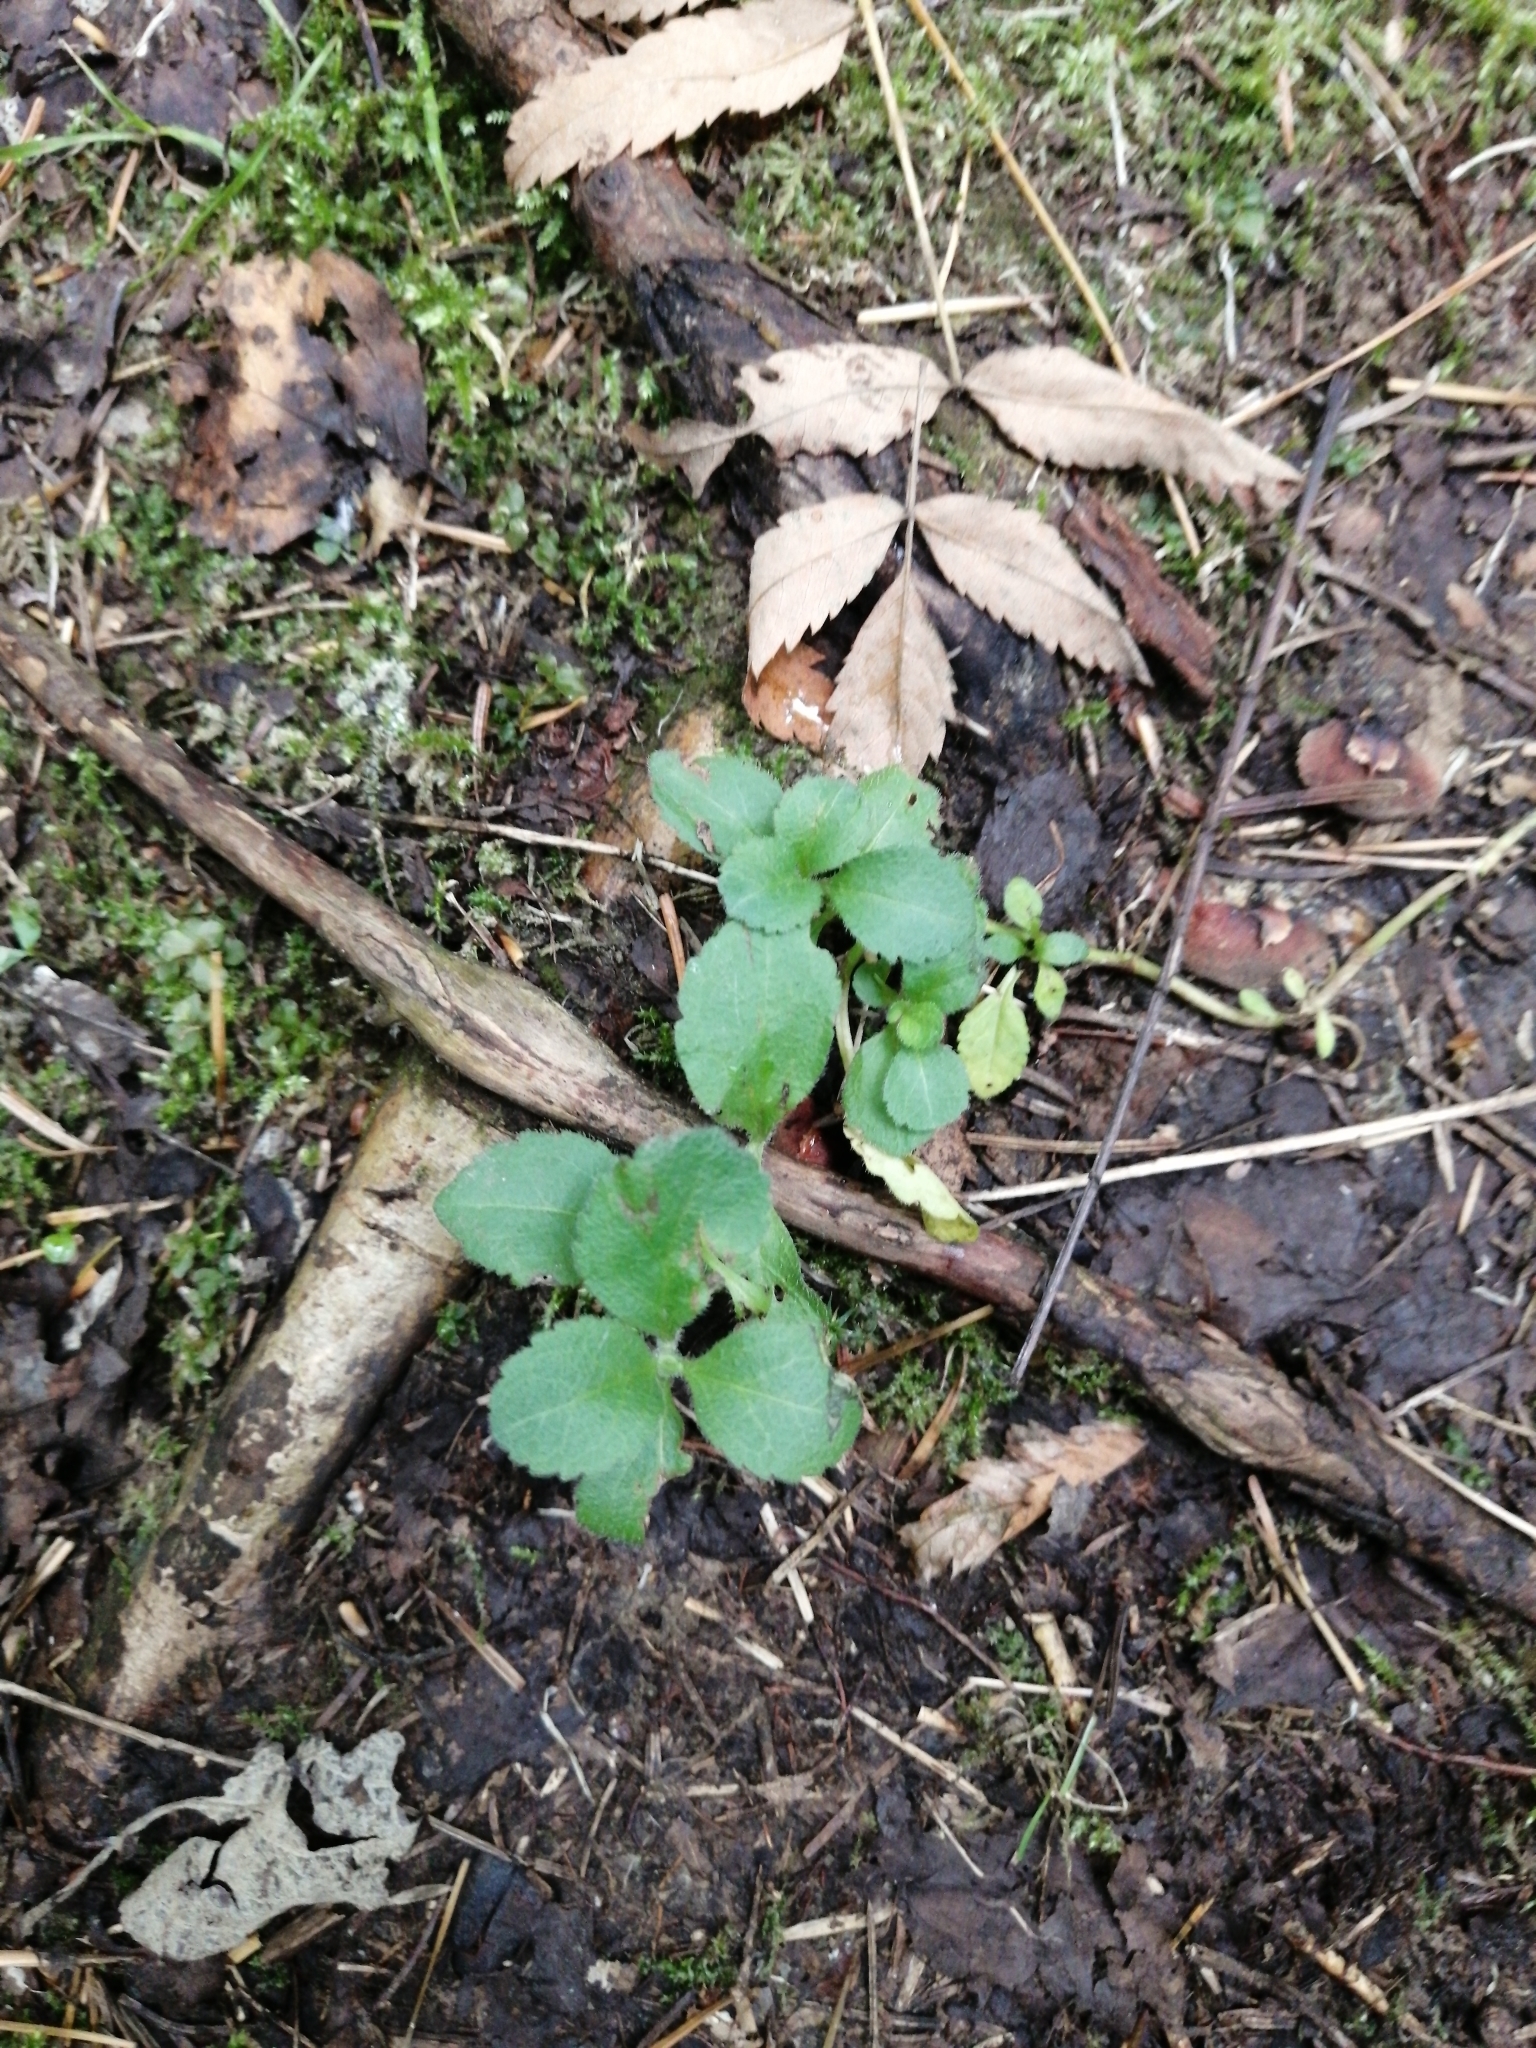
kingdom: Plantae
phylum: Tracheophyta
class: Magnoliopsida
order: Lamiales
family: Plantaginaceae
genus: Veronica
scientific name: Veronica officinalis
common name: Common speedwell
